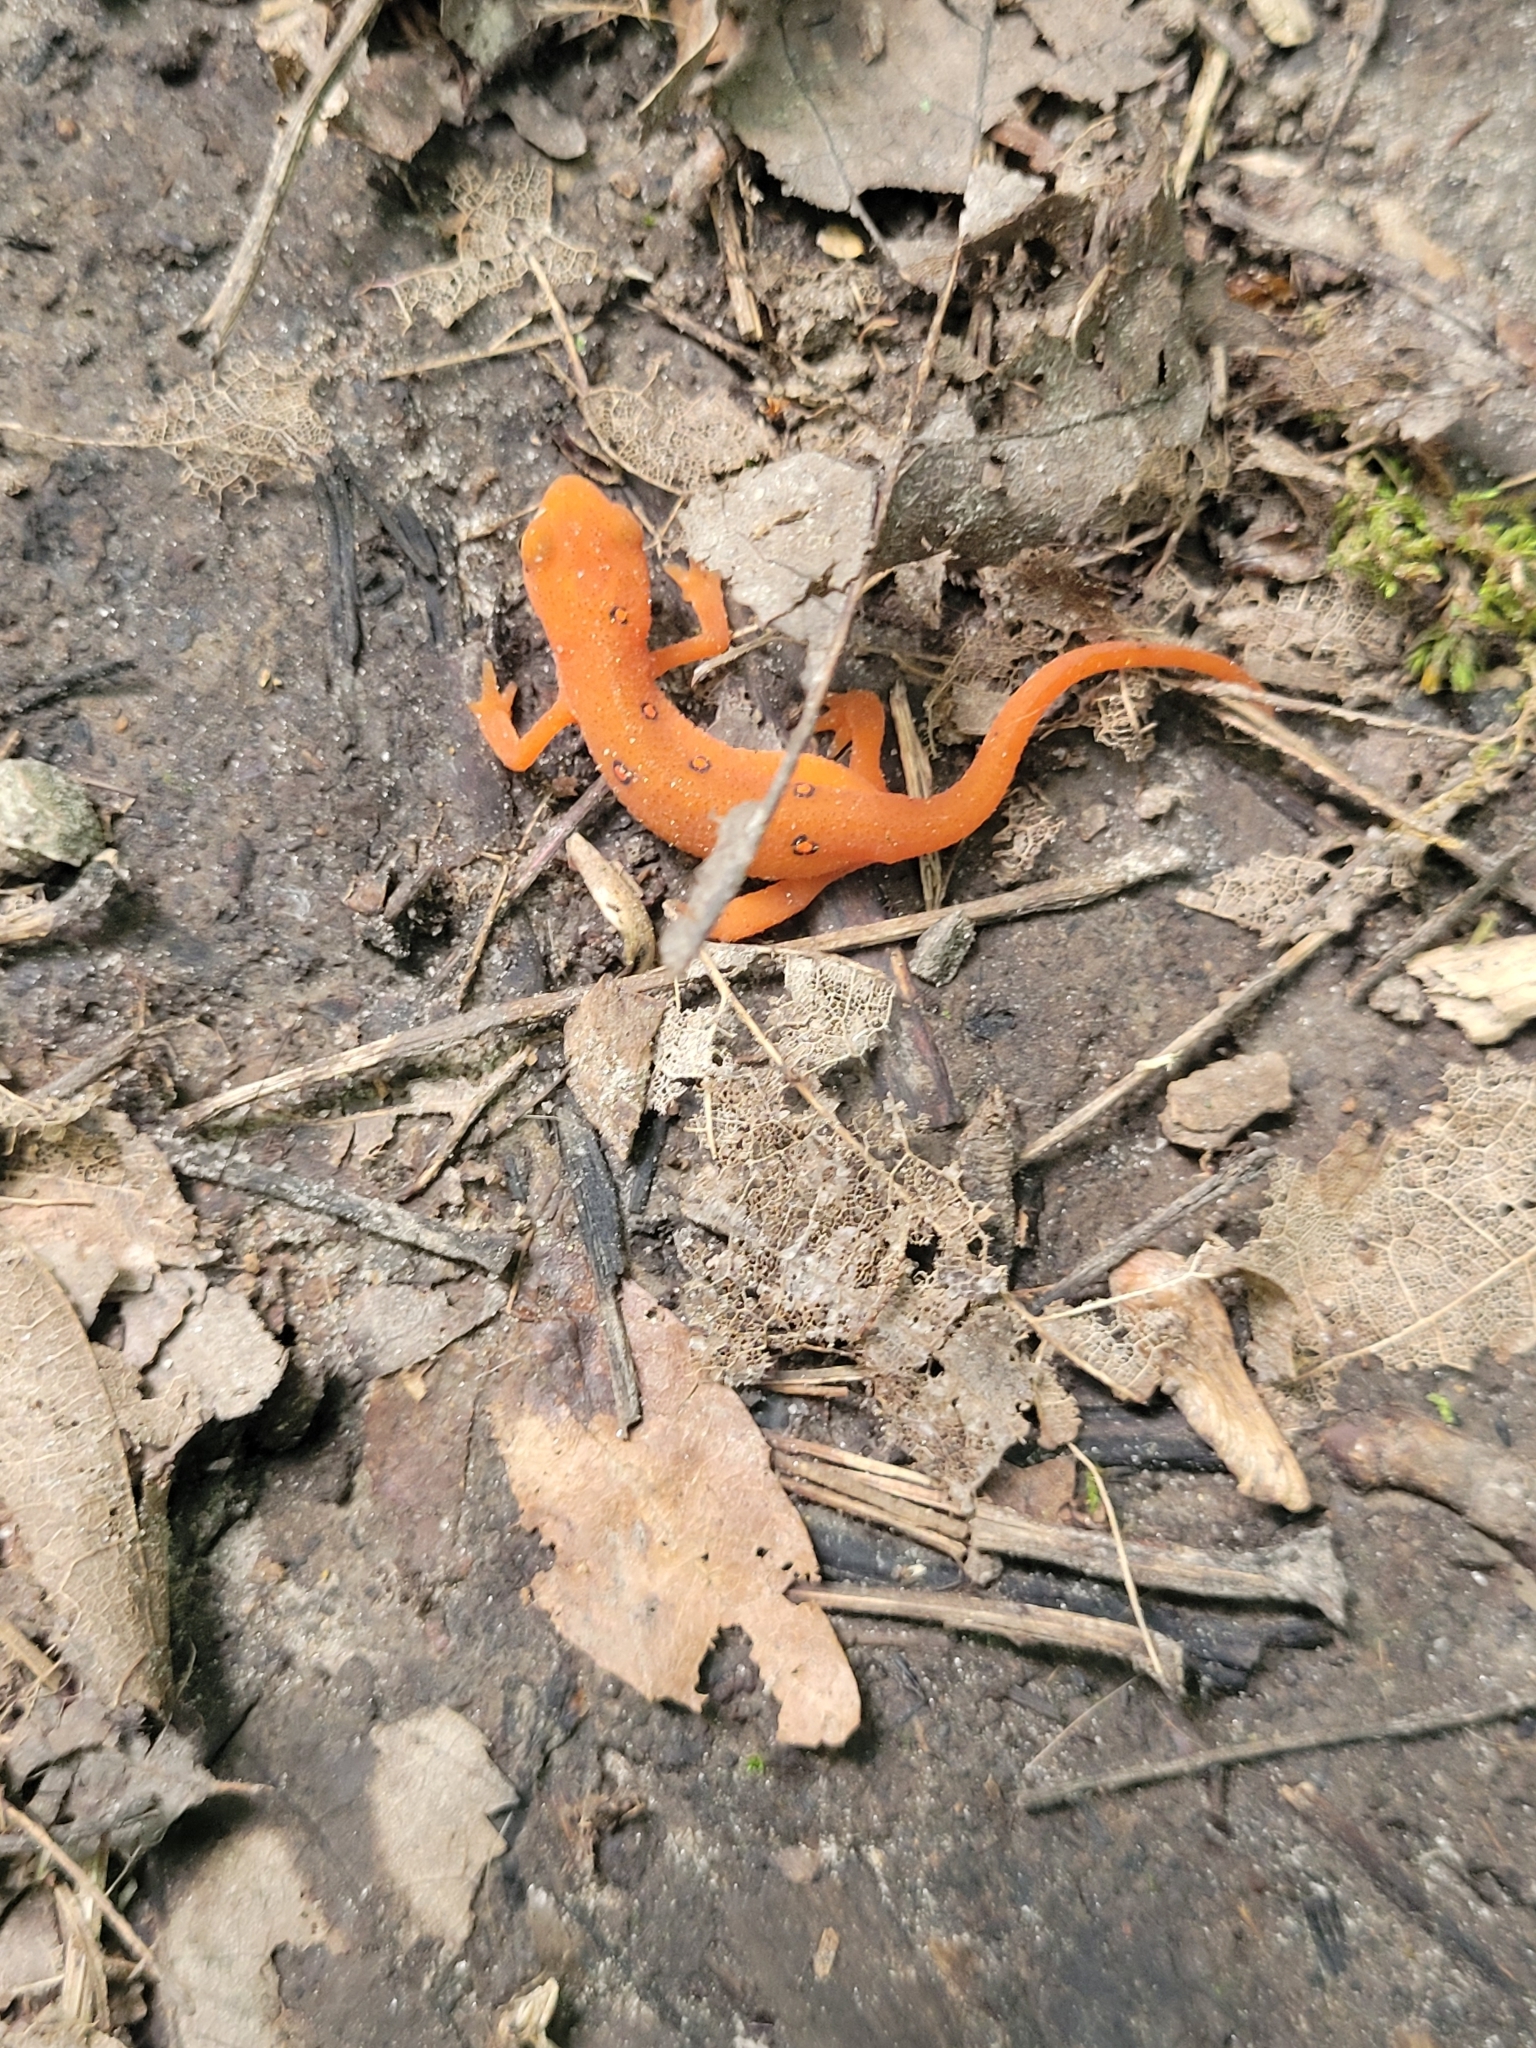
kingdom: Animalia
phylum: Chordata
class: Amphibia
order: Caudata
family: Salamandridae
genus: Notophthalmus
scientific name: Notophthalmus viridescens
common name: Eastern newt
